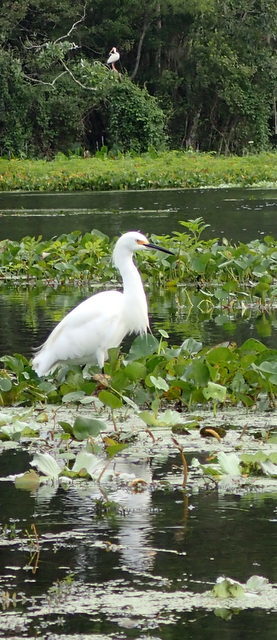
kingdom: Animalia
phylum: Chordata
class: Aves
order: Pelecaniformes
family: Ardeidae
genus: Egretta
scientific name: Egretta thula
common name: Snowy egret
